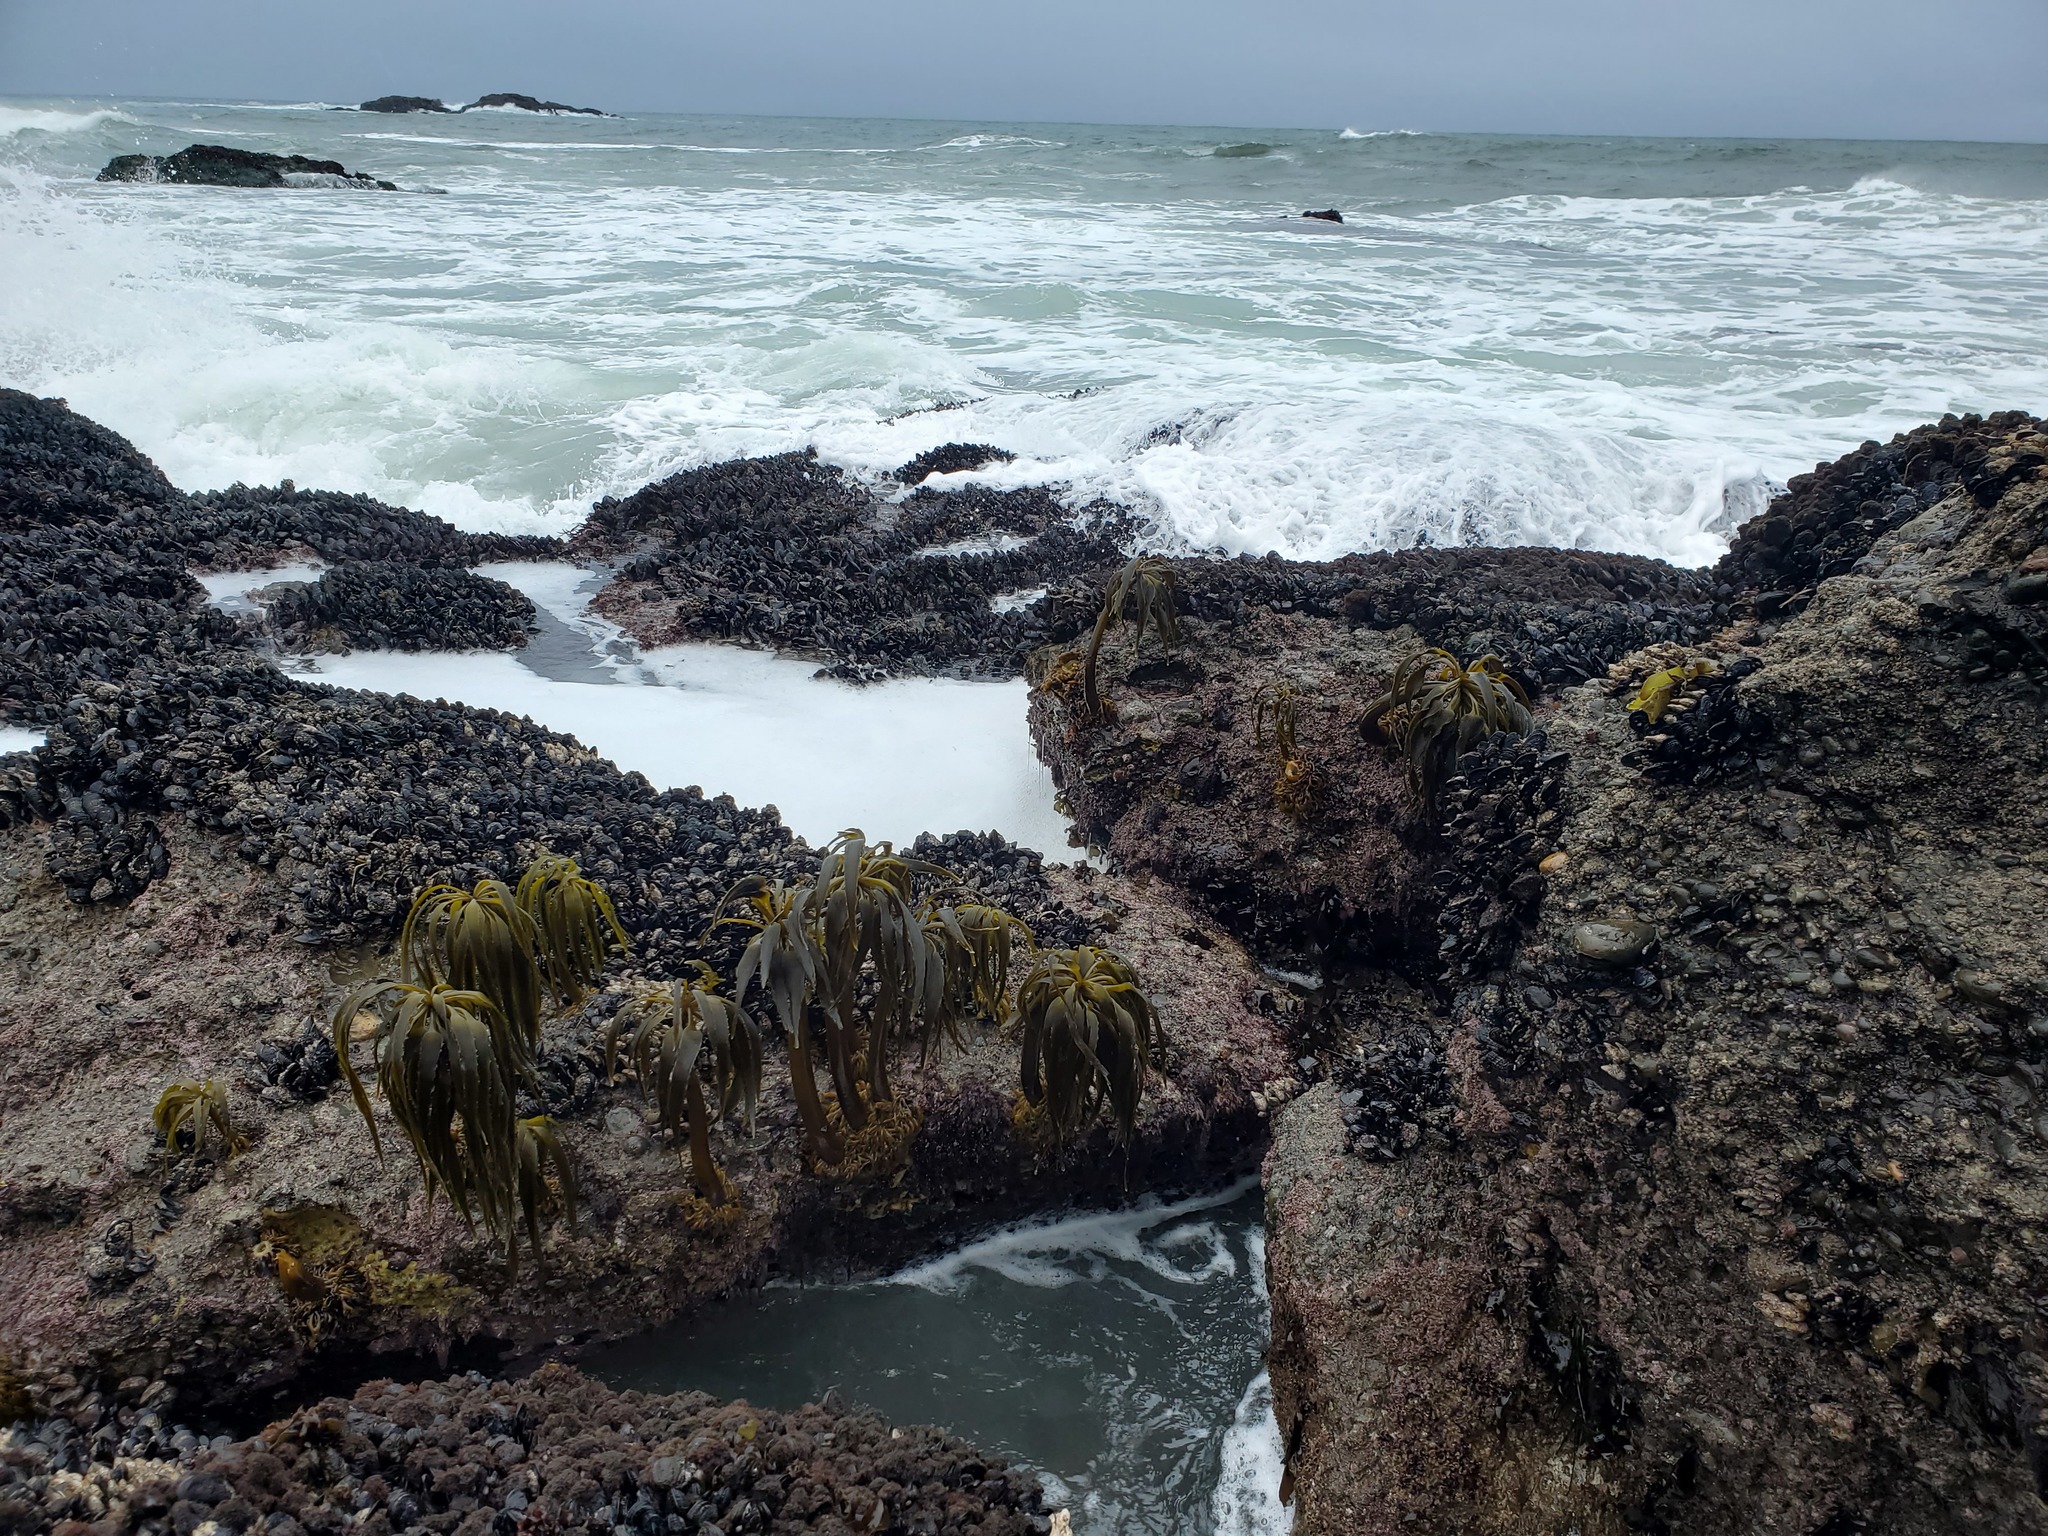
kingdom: Chromista
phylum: Ochrophyta
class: Phaeophyceae
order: Laminariales
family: Laminariaceae
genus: Postelsia
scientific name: Postelsia palmiformis
